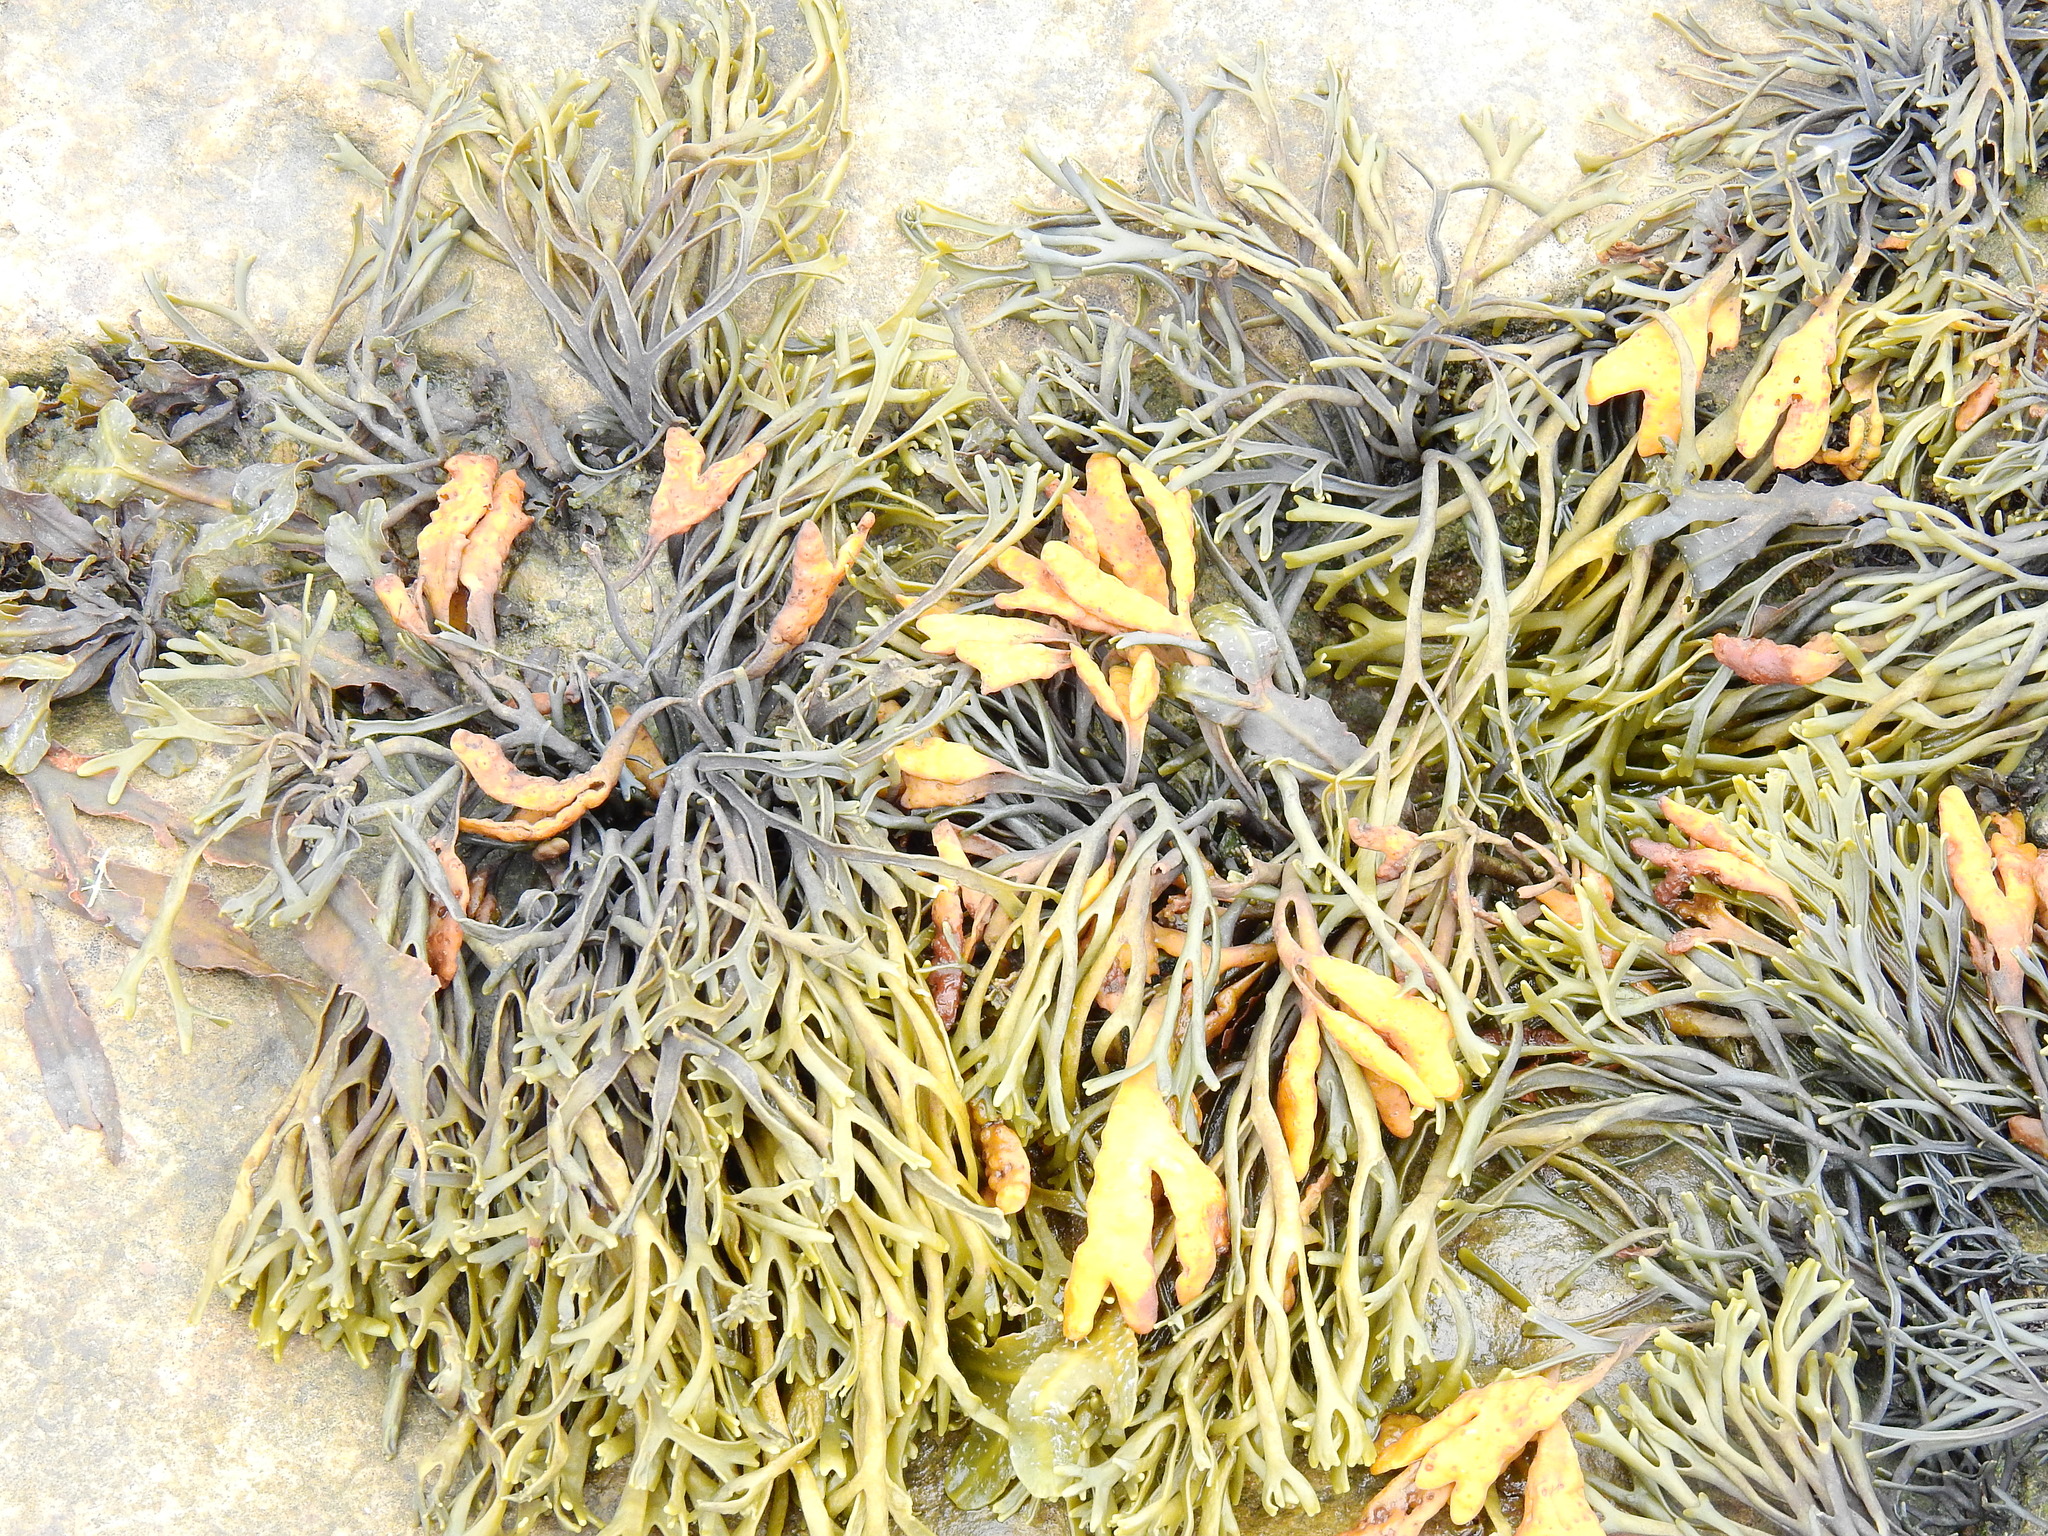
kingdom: Chromista
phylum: Ochrophyta
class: Phaeophyceae
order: Fucales
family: Fucaceae
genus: Pelvetia
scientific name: Pelvetia canaliculata
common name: Channelled wrack
